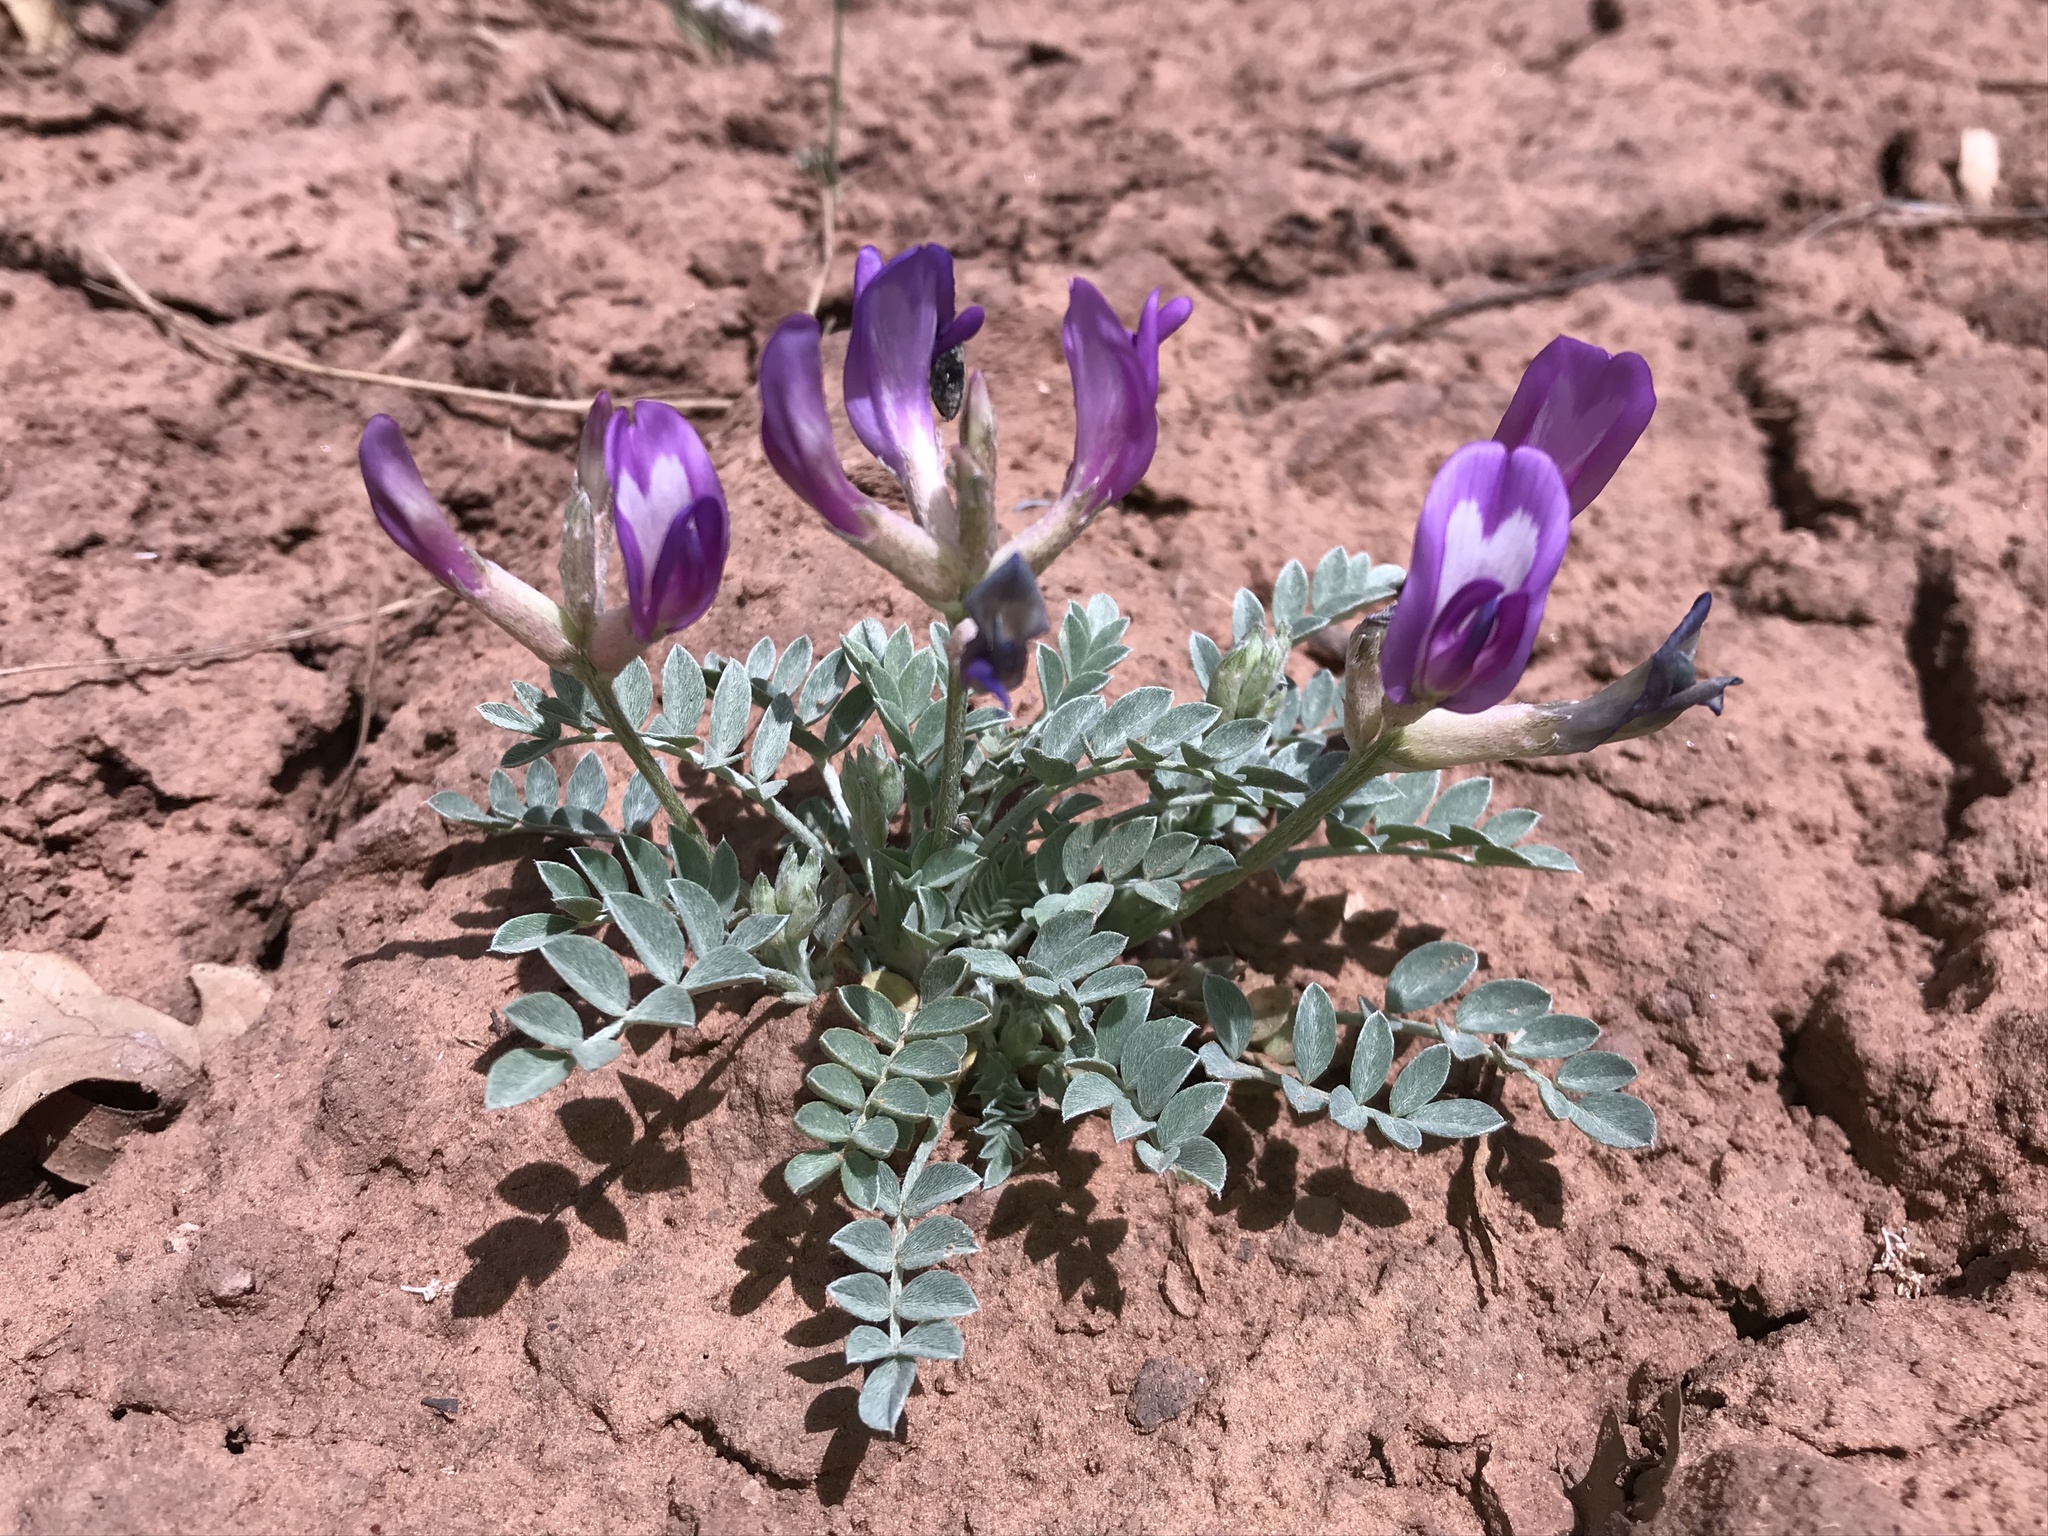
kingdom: Plantae
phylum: Tracheophyta
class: Magnoliopsida
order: Fabales
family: Fabaceae
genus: Astragalus
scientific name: Astragalus amphioxys
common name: Crescent milk-vetch
